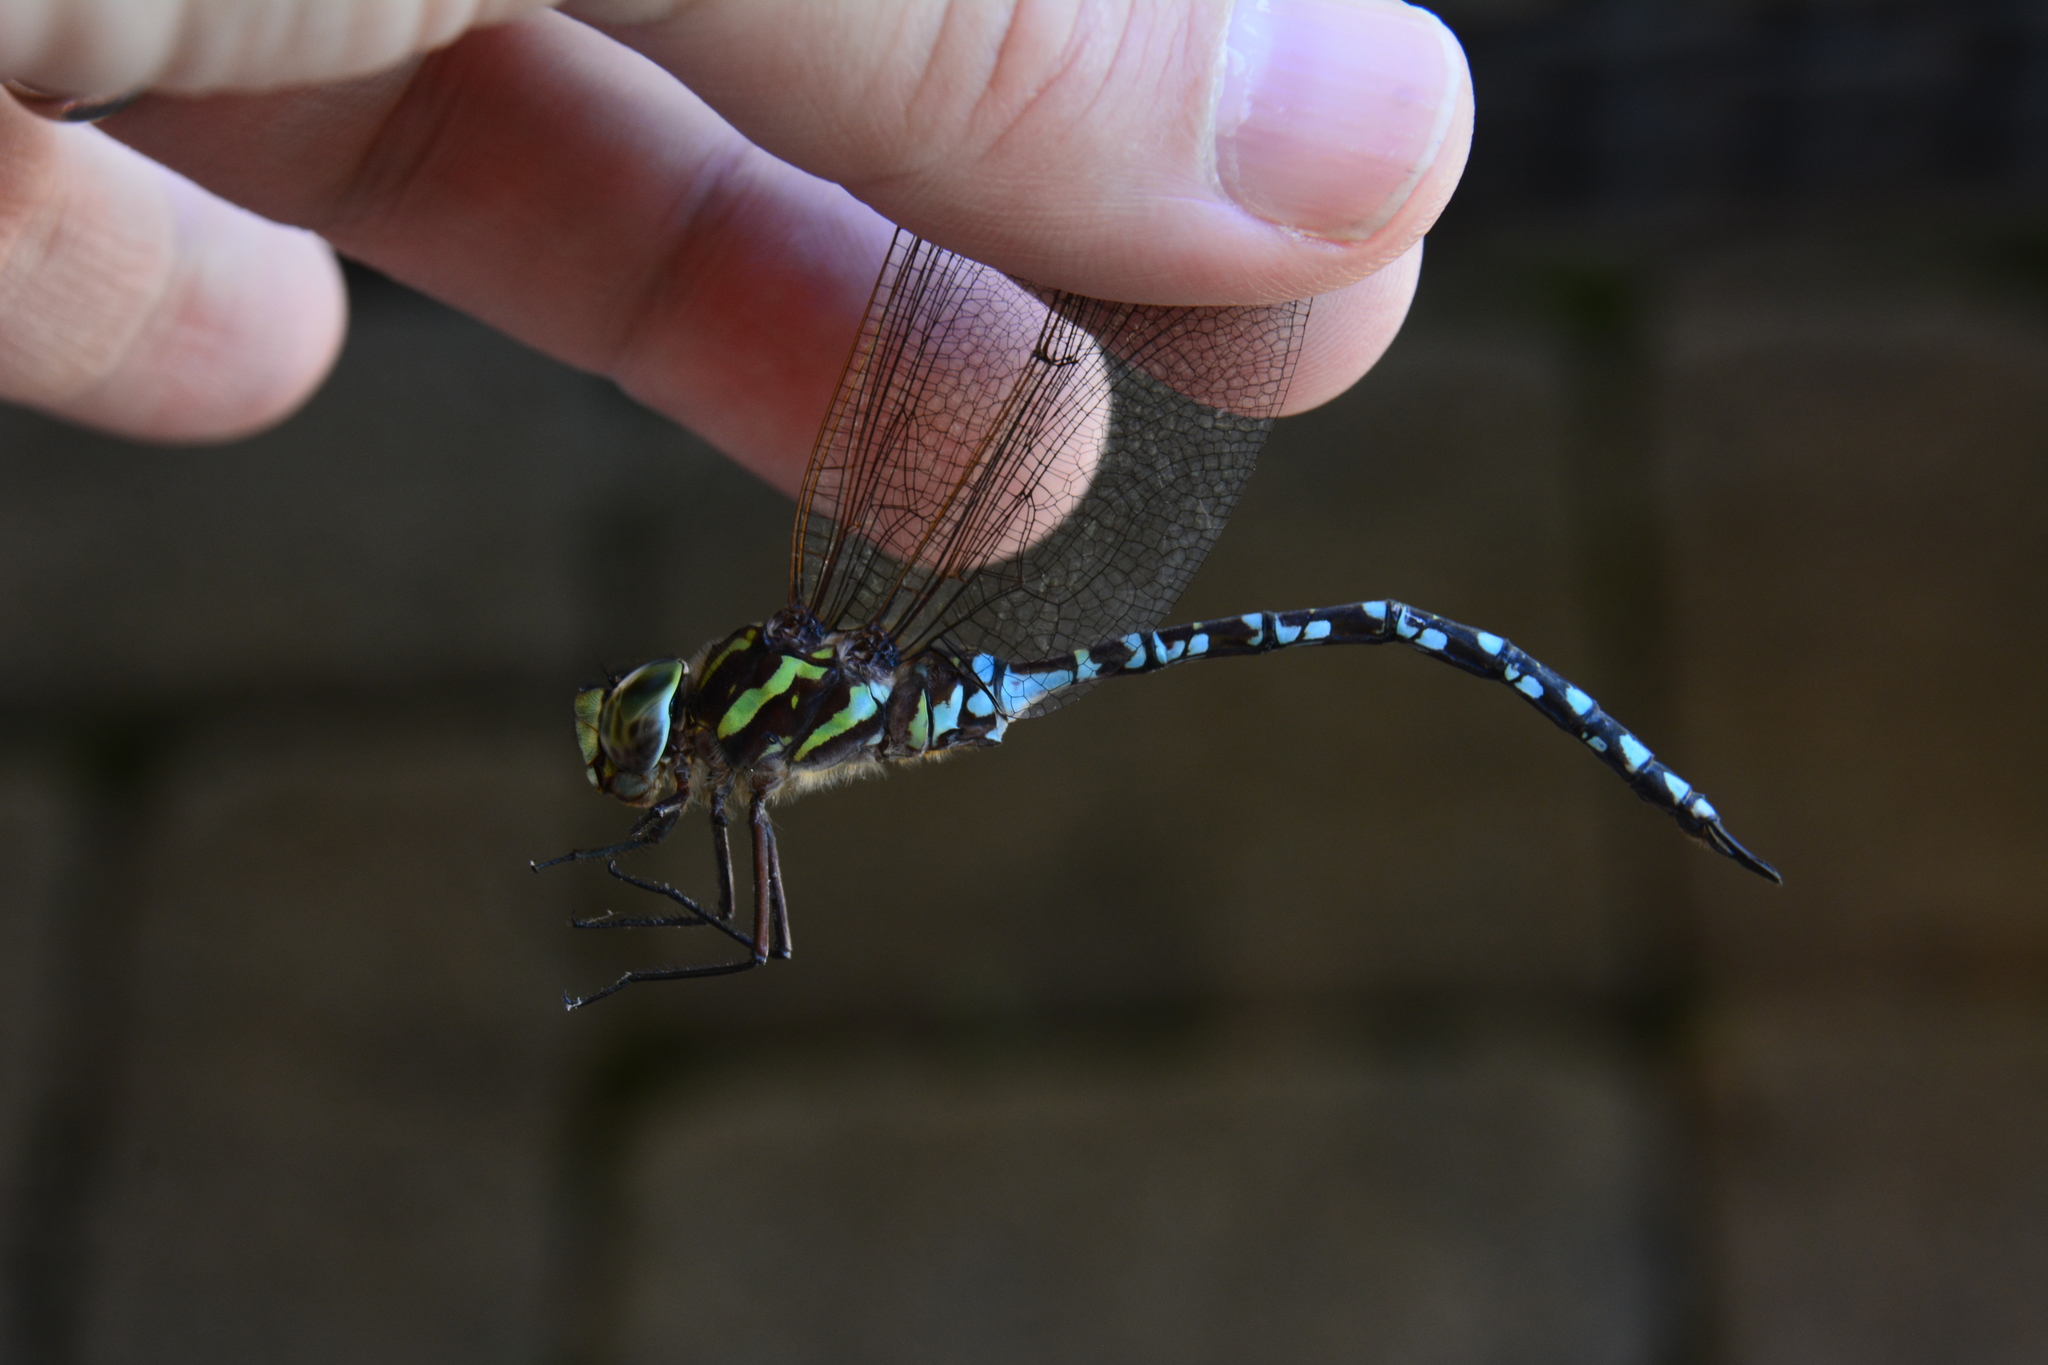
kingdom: Animalia
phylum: Arthropoda
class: Insecta
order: Odonata
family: Aeshnidae
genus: Aeshna
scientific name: Aeshna verticalis
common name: Green-striped darner
